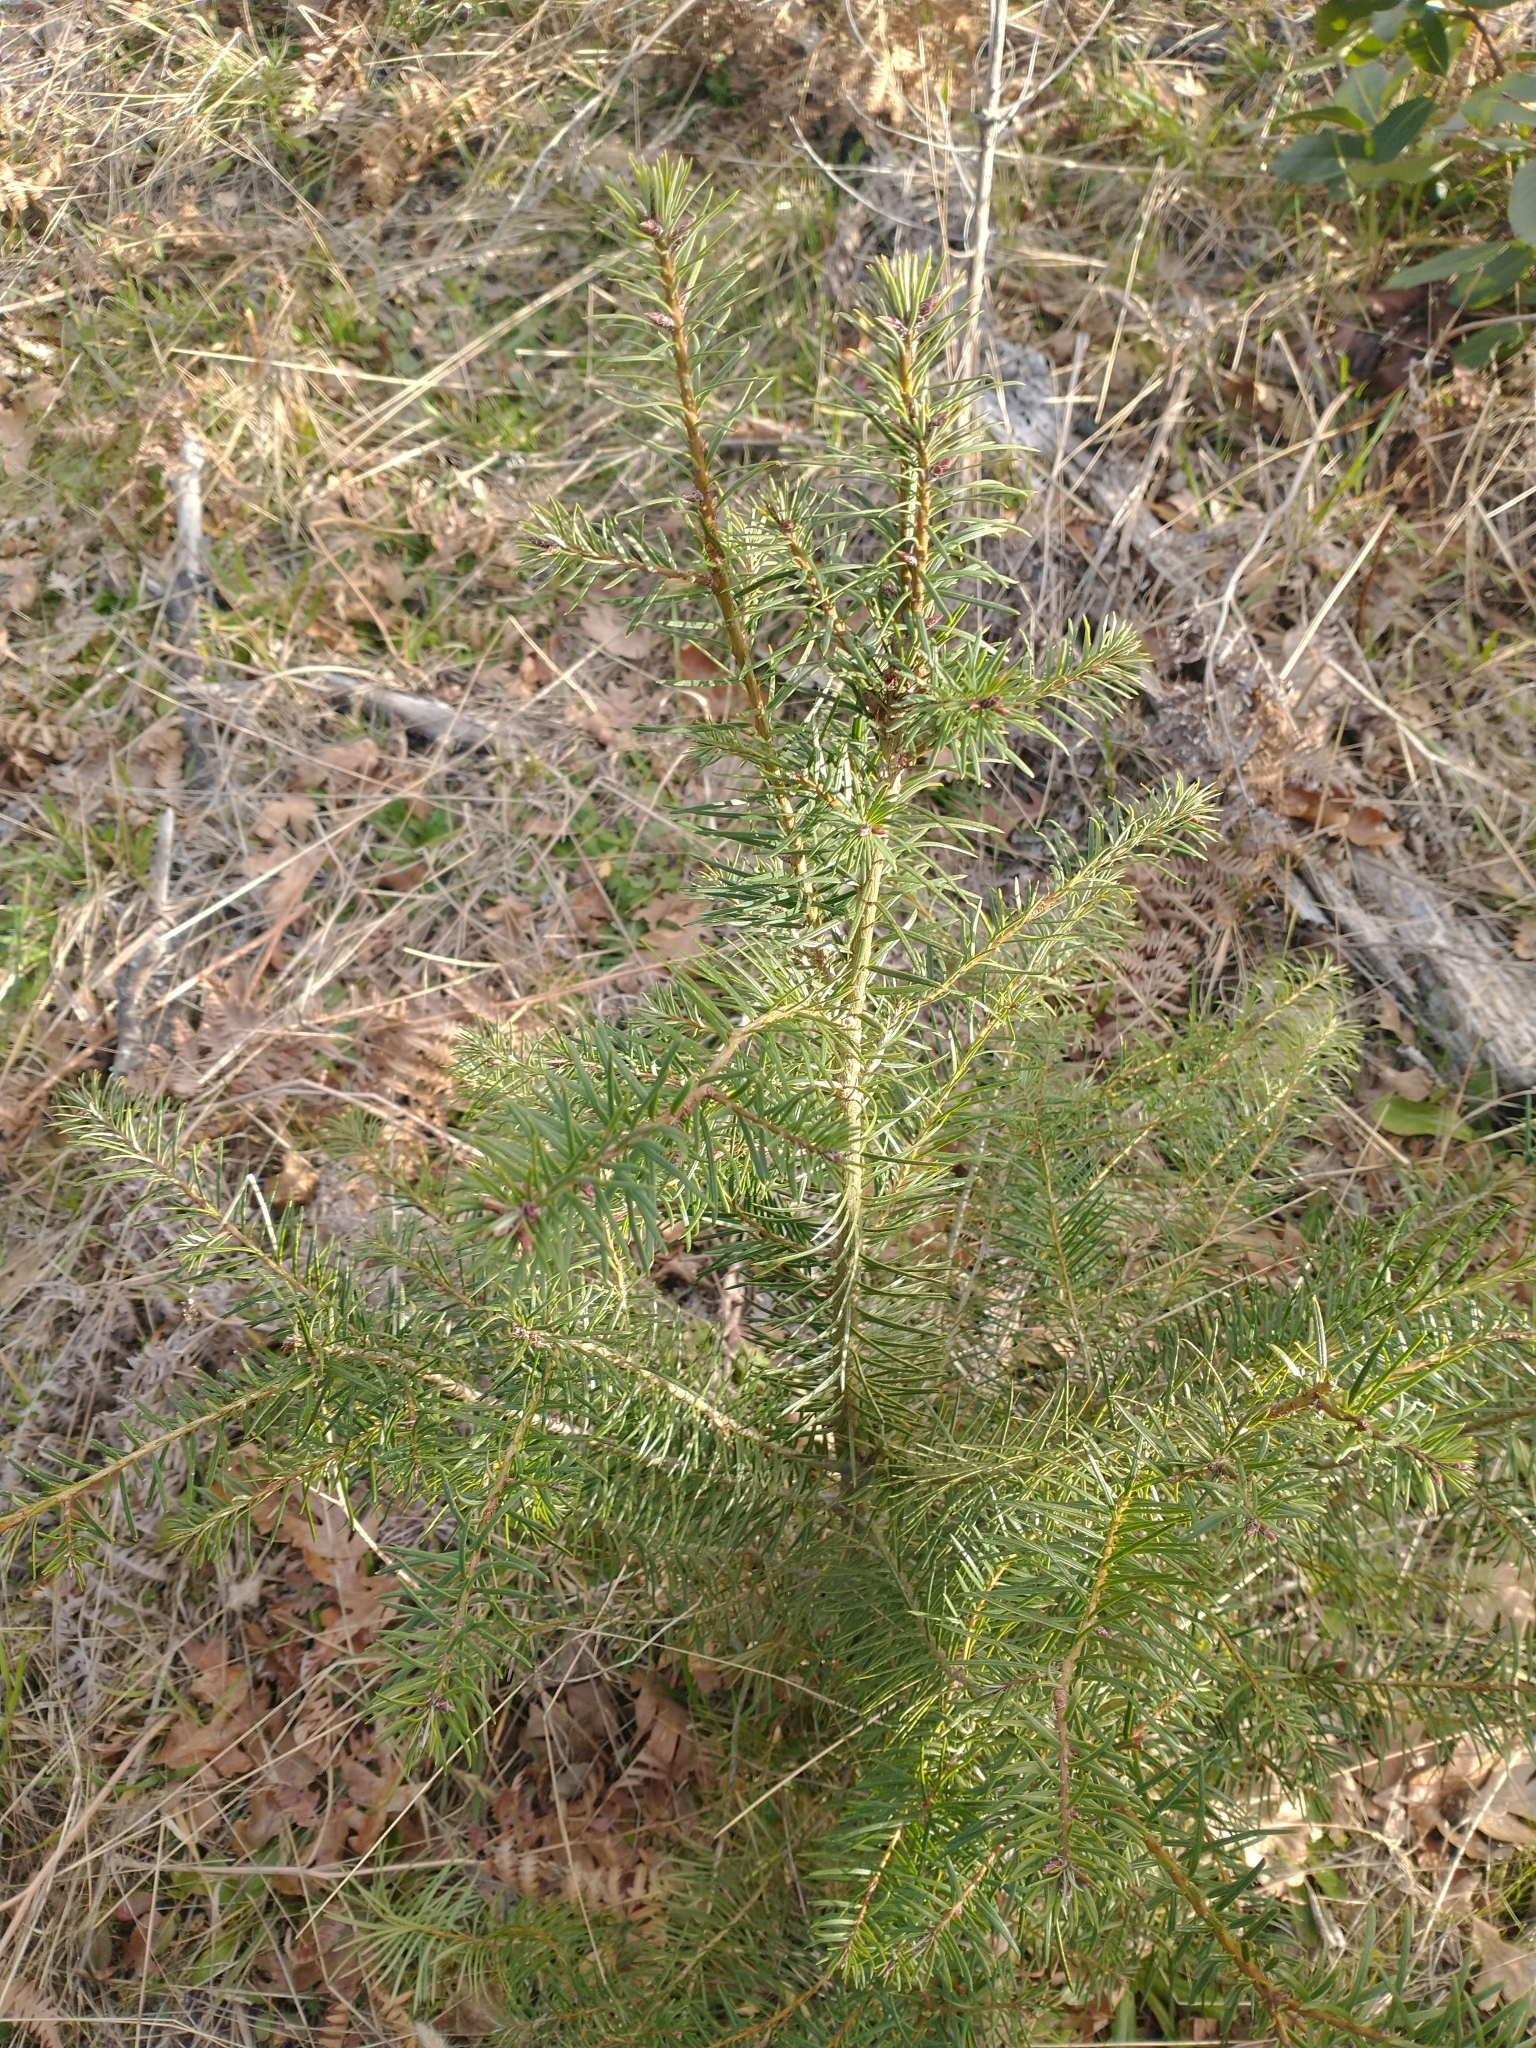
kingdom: Plantae
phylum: Tracheophyta
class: Pinopsida
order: Pinales
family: Pinaceae
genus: Pseudotsuga
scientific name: Pseudotsuga menziesii
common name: Douglas fir
